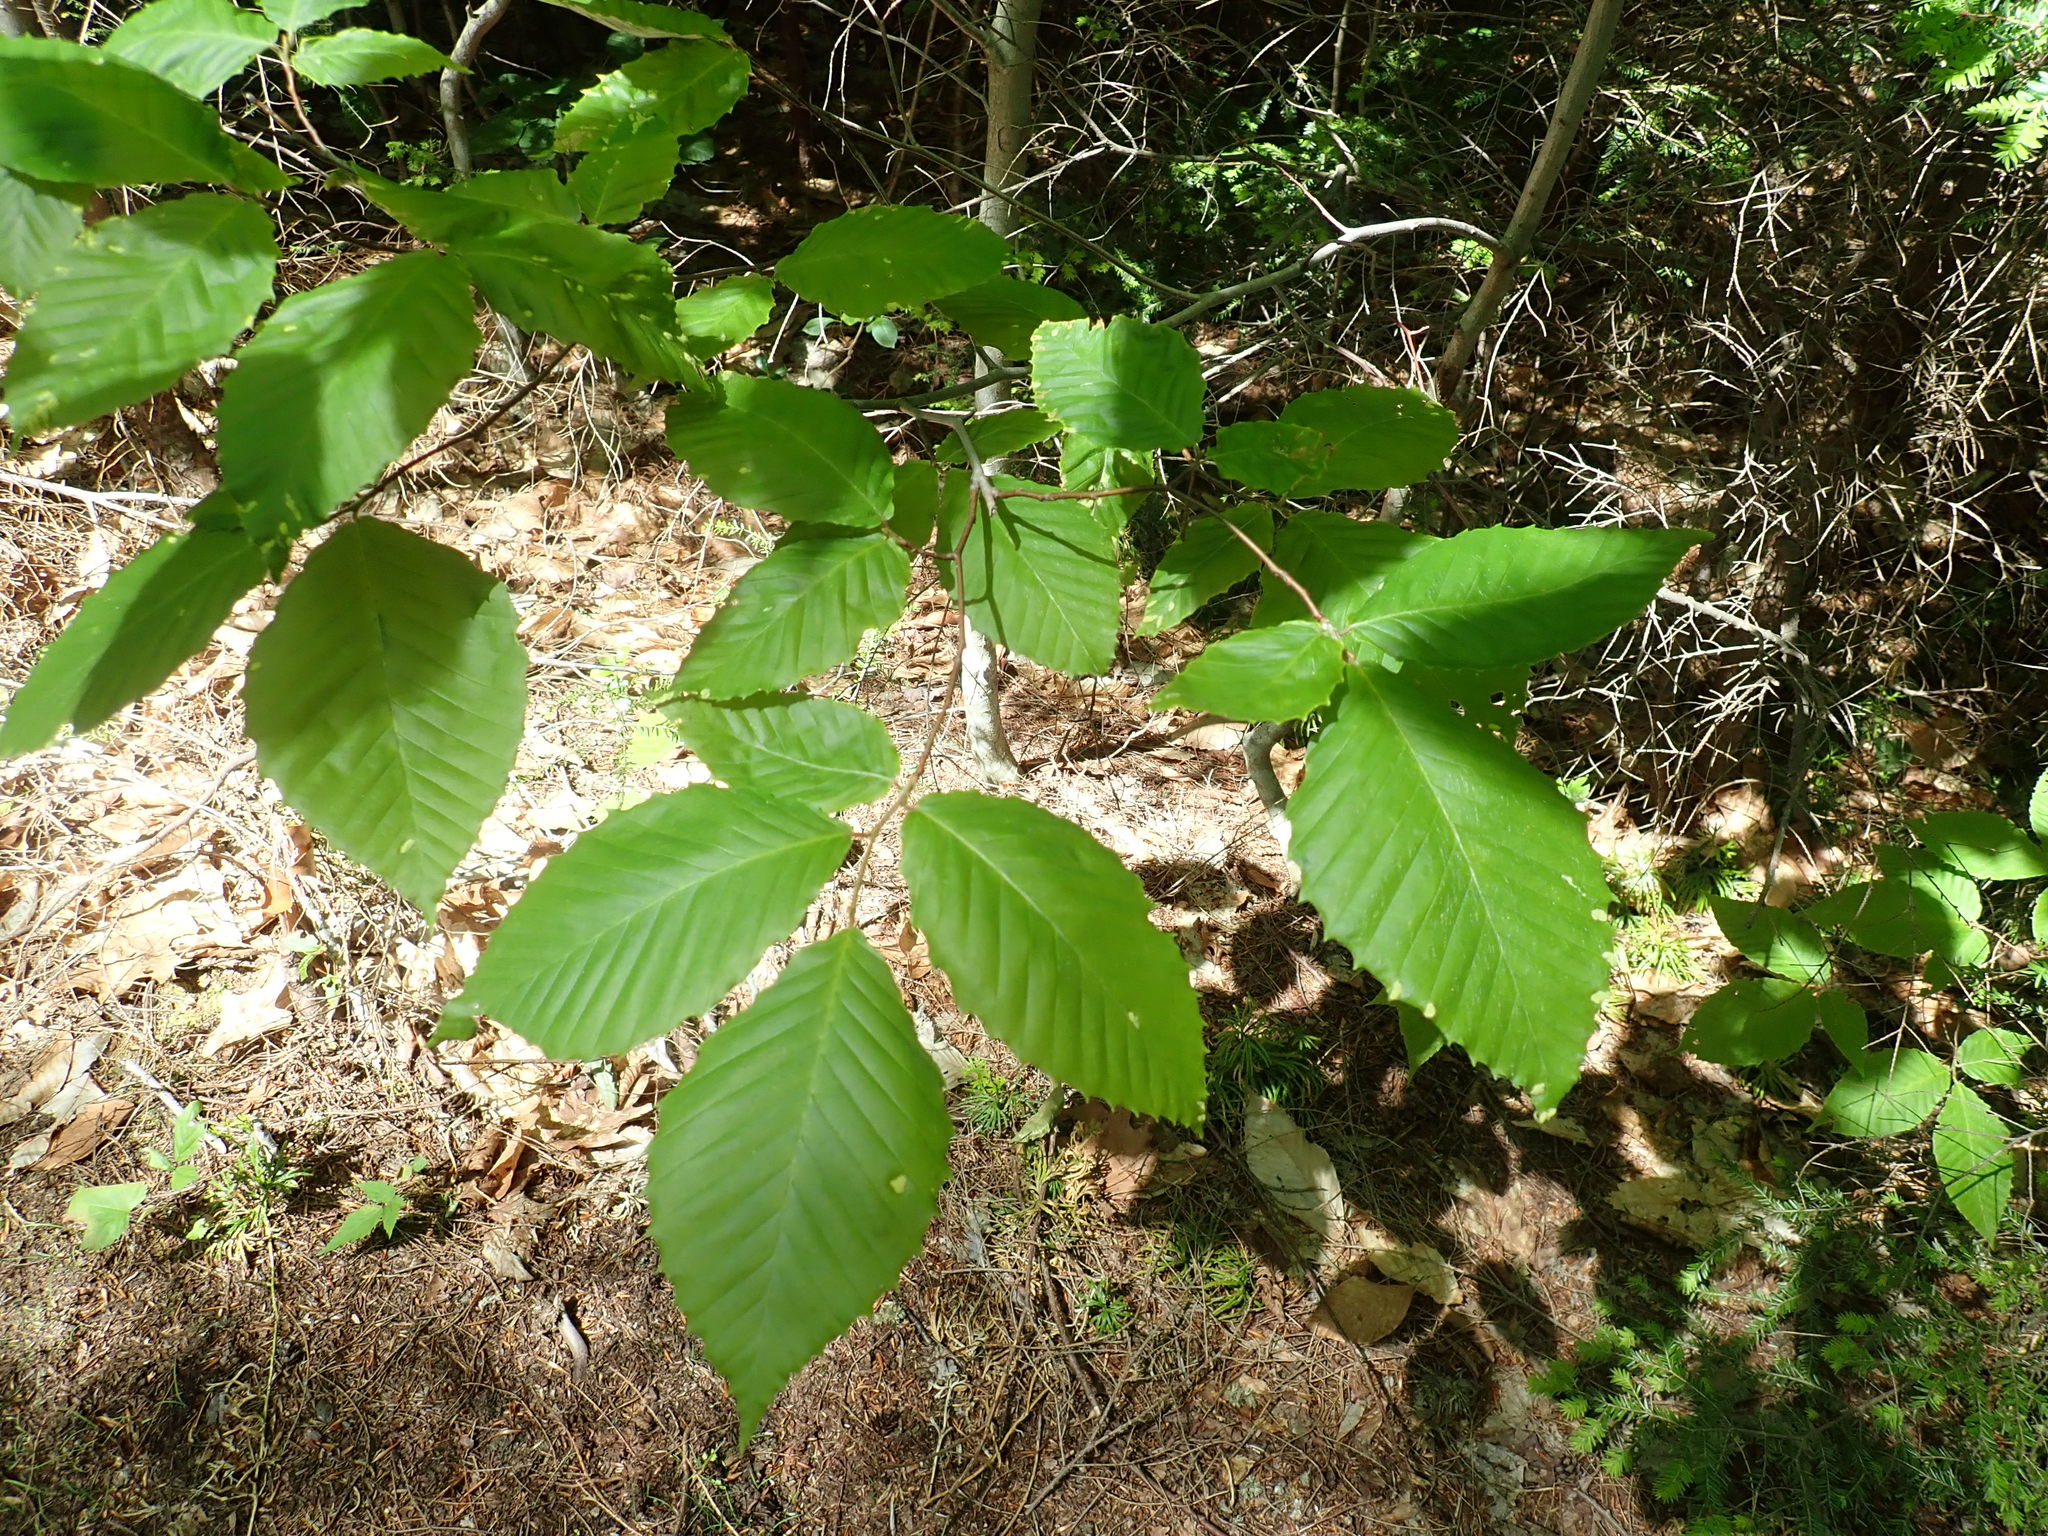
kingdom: Plantae
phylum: Tracheophyta
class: Magnoliopsida
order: Fagales
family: Fagaceae
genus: Fagus
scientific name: Fagus grandifolia
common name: American beech
